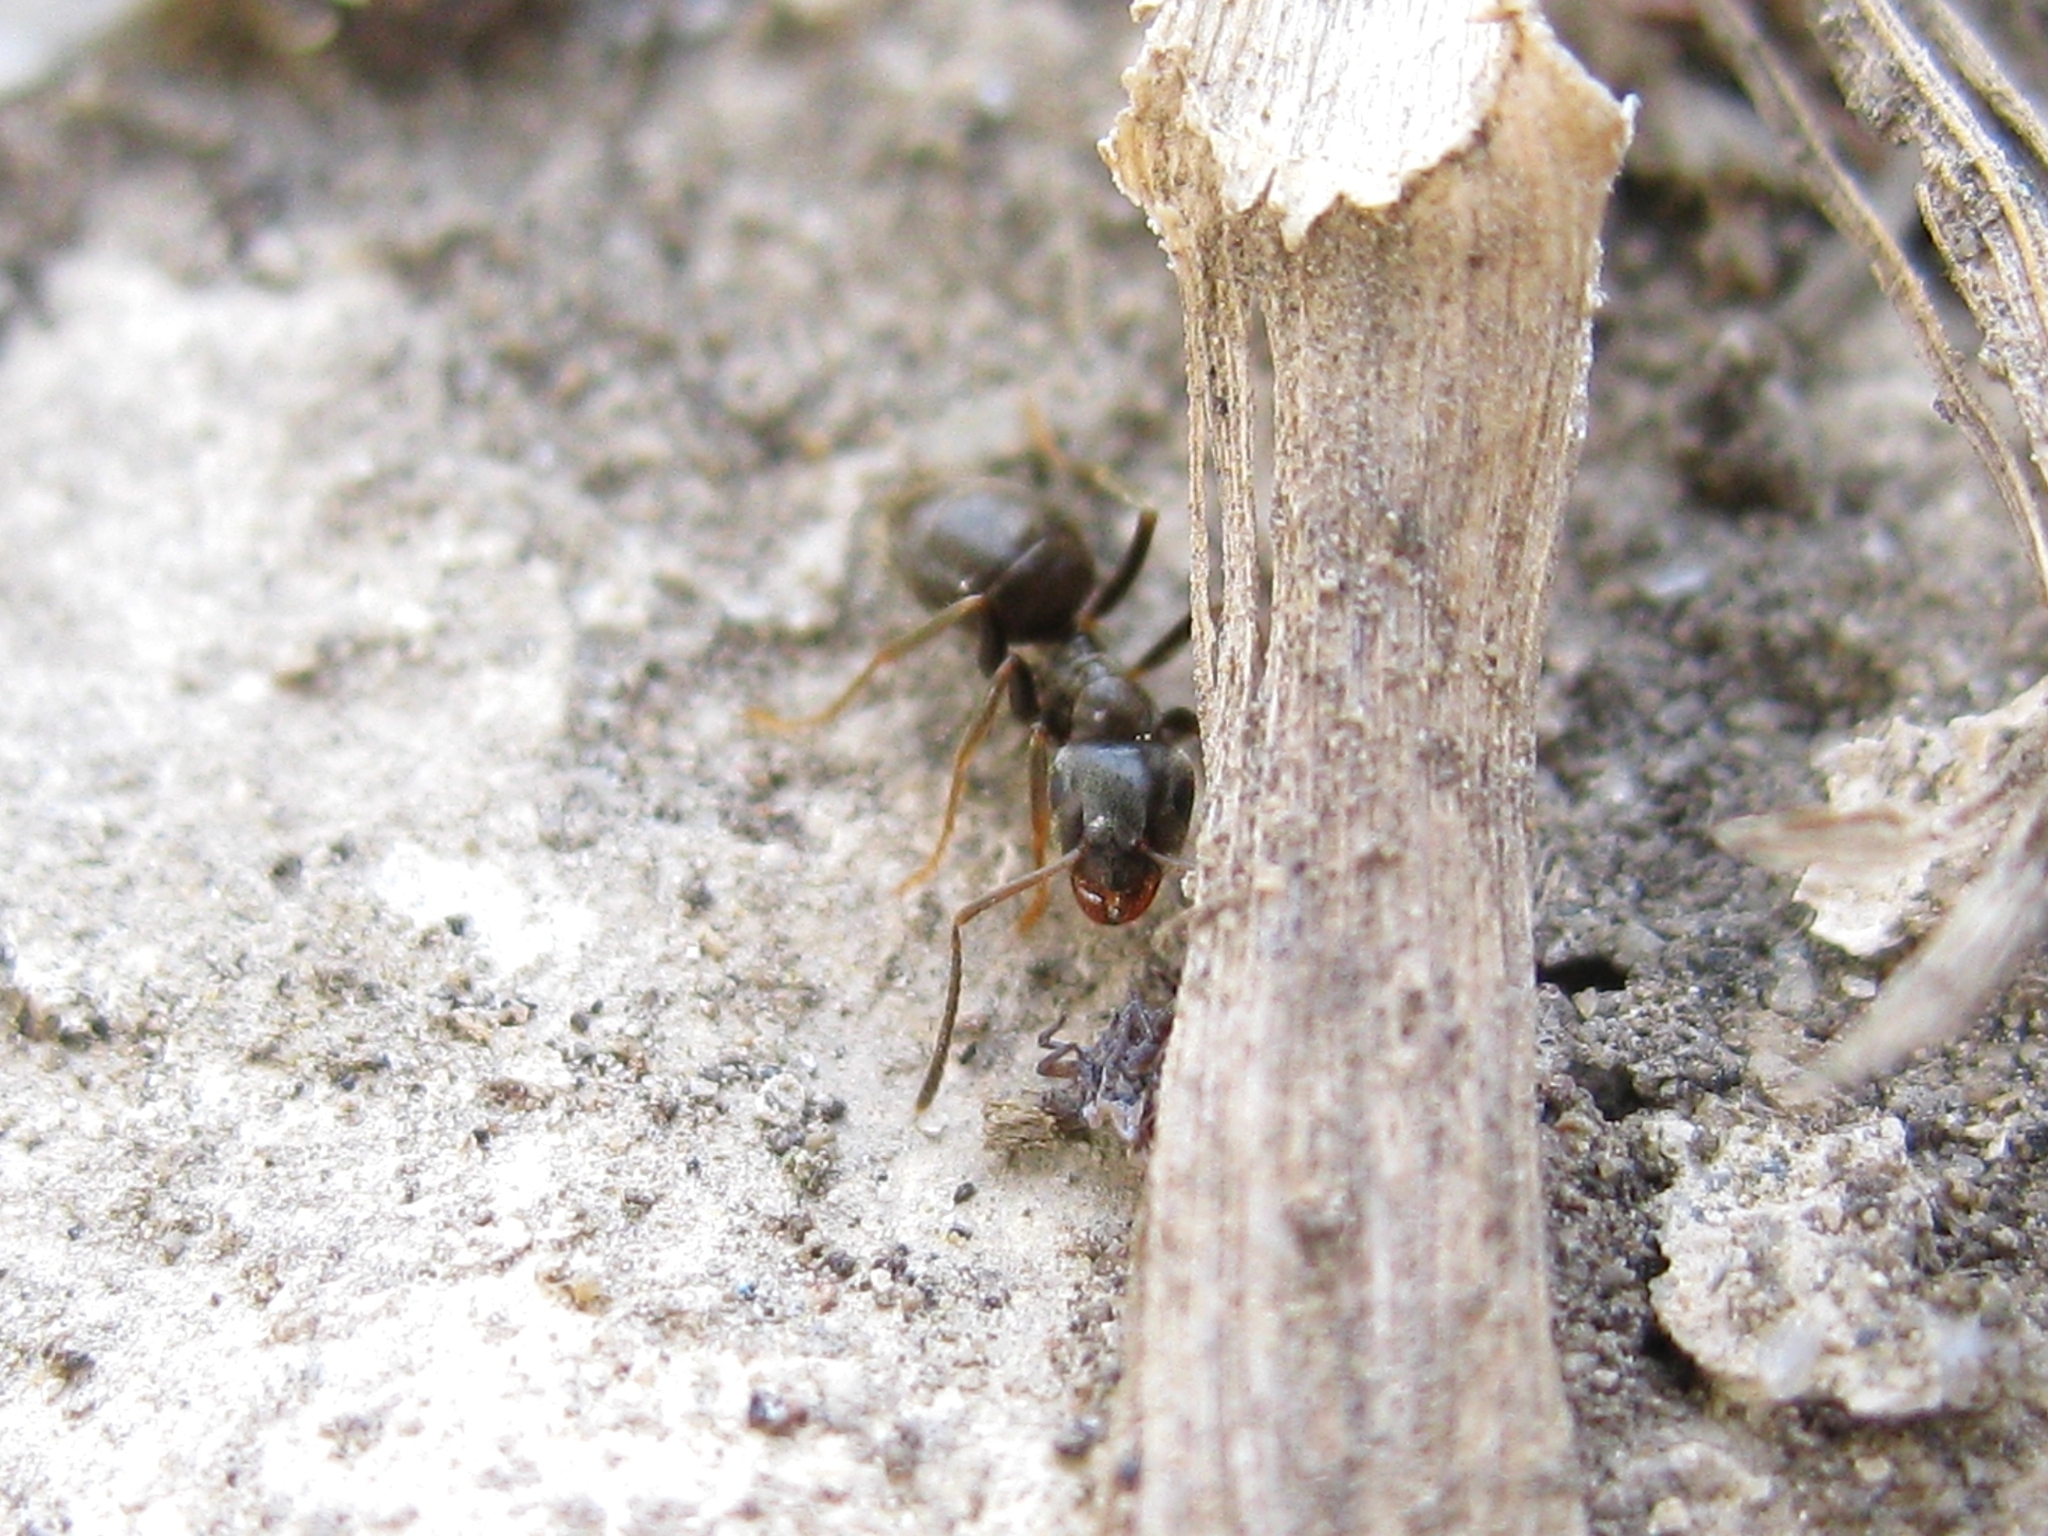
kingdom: Animalia
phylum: Arthropoda
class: Insecta
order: Hymenoptera
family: Formicidae
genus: Lasius
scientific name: Lasius
